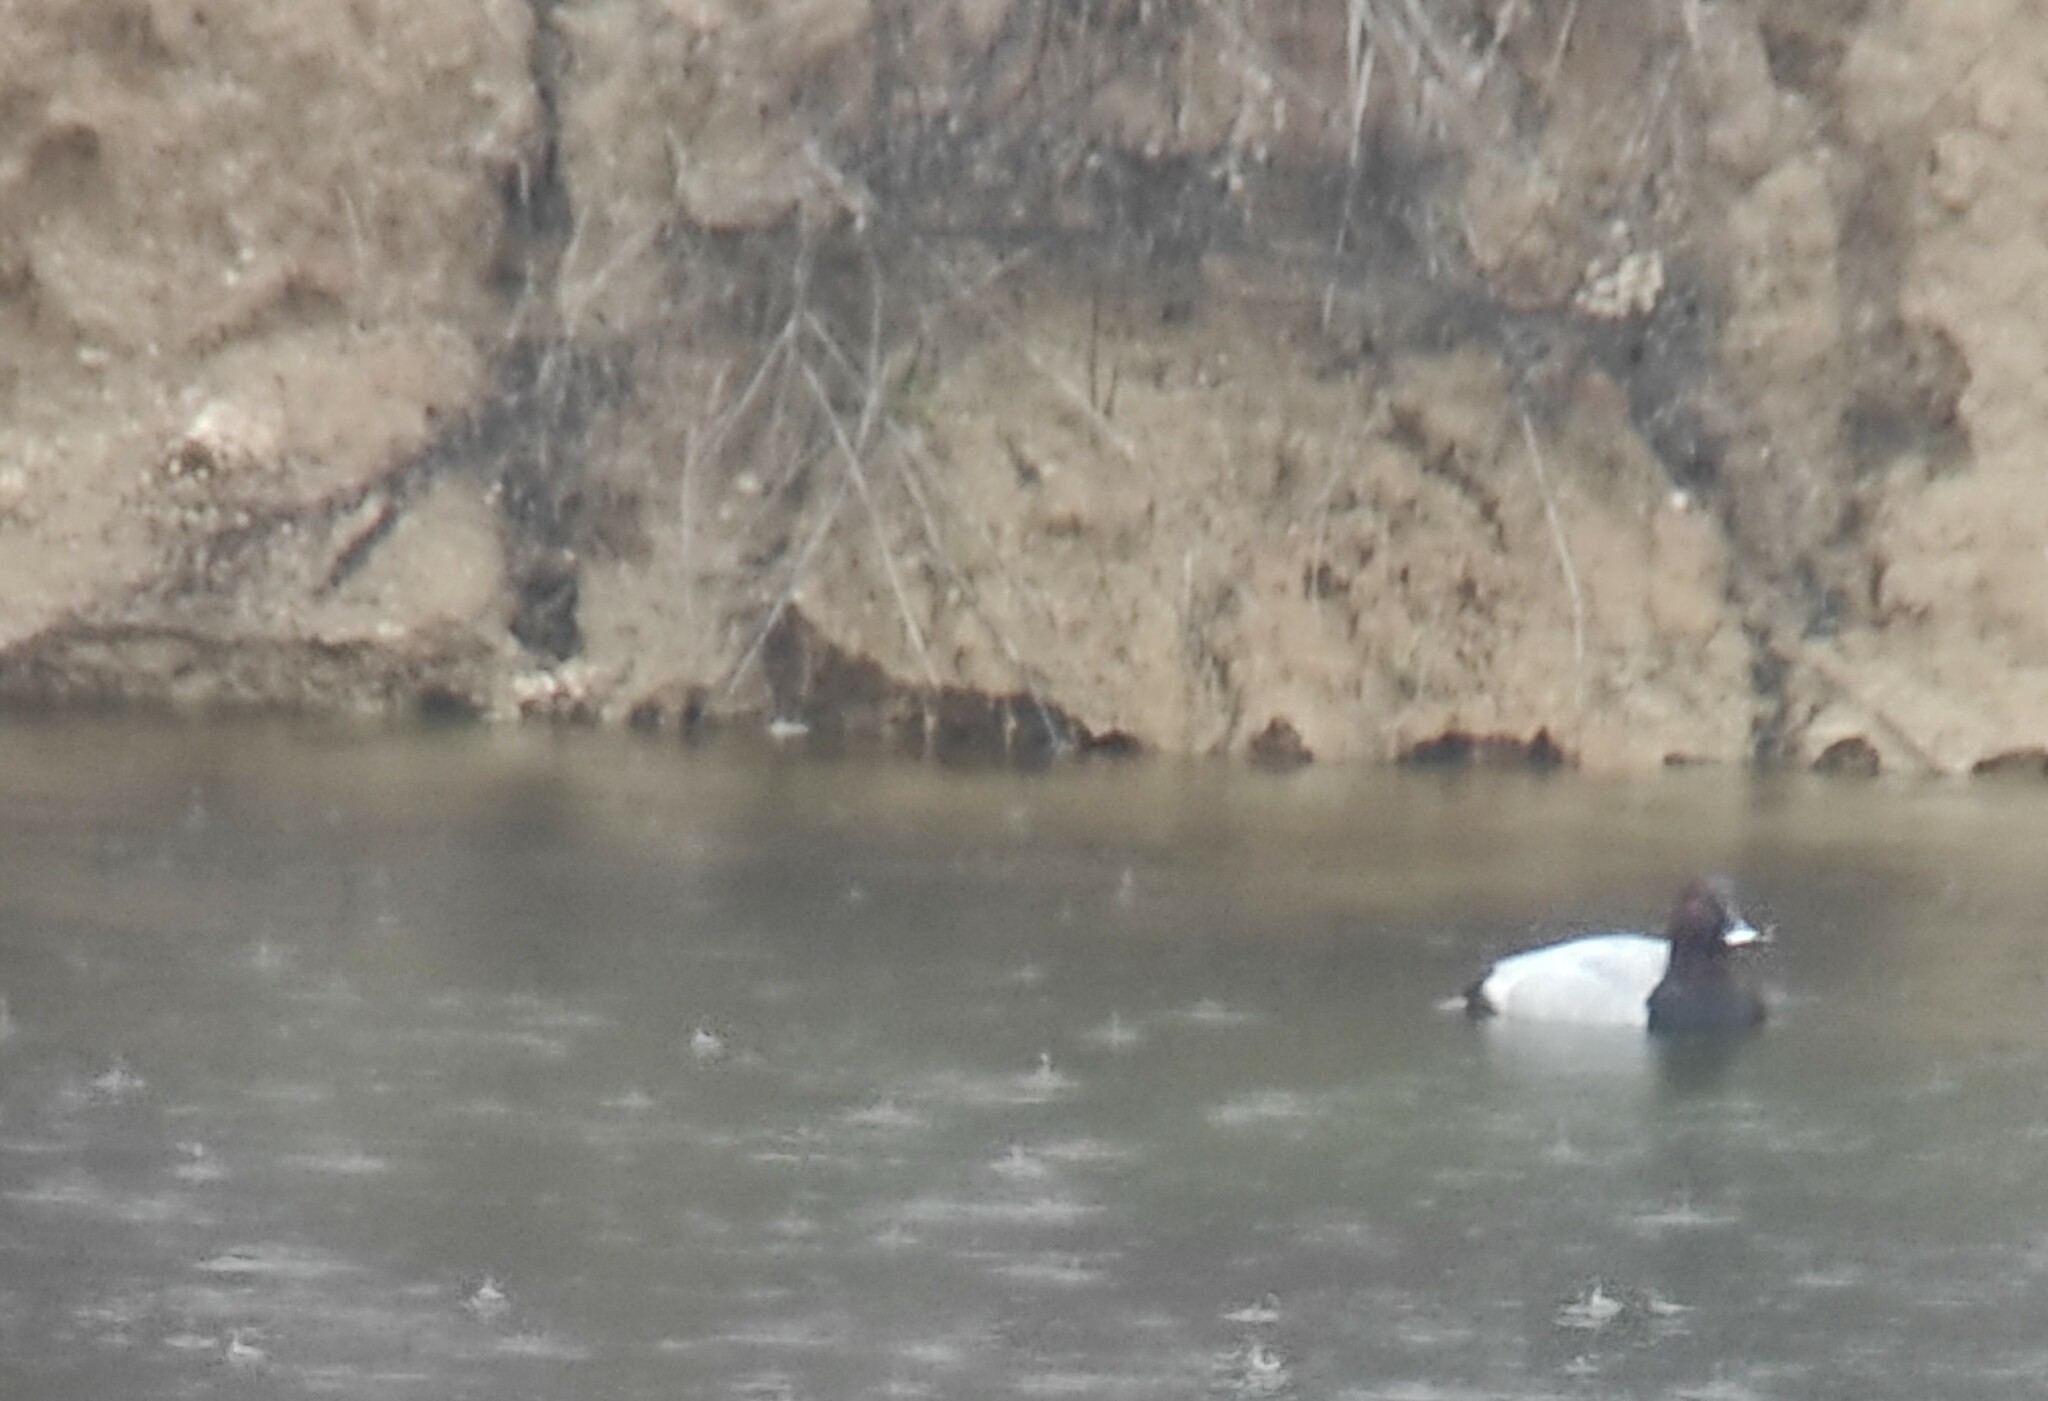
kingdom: Animalia
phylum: Chordata
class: Aves
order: Anseriformes
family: Anatidae
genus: Aythya
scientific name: Aythya ferina
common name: Common pochard
